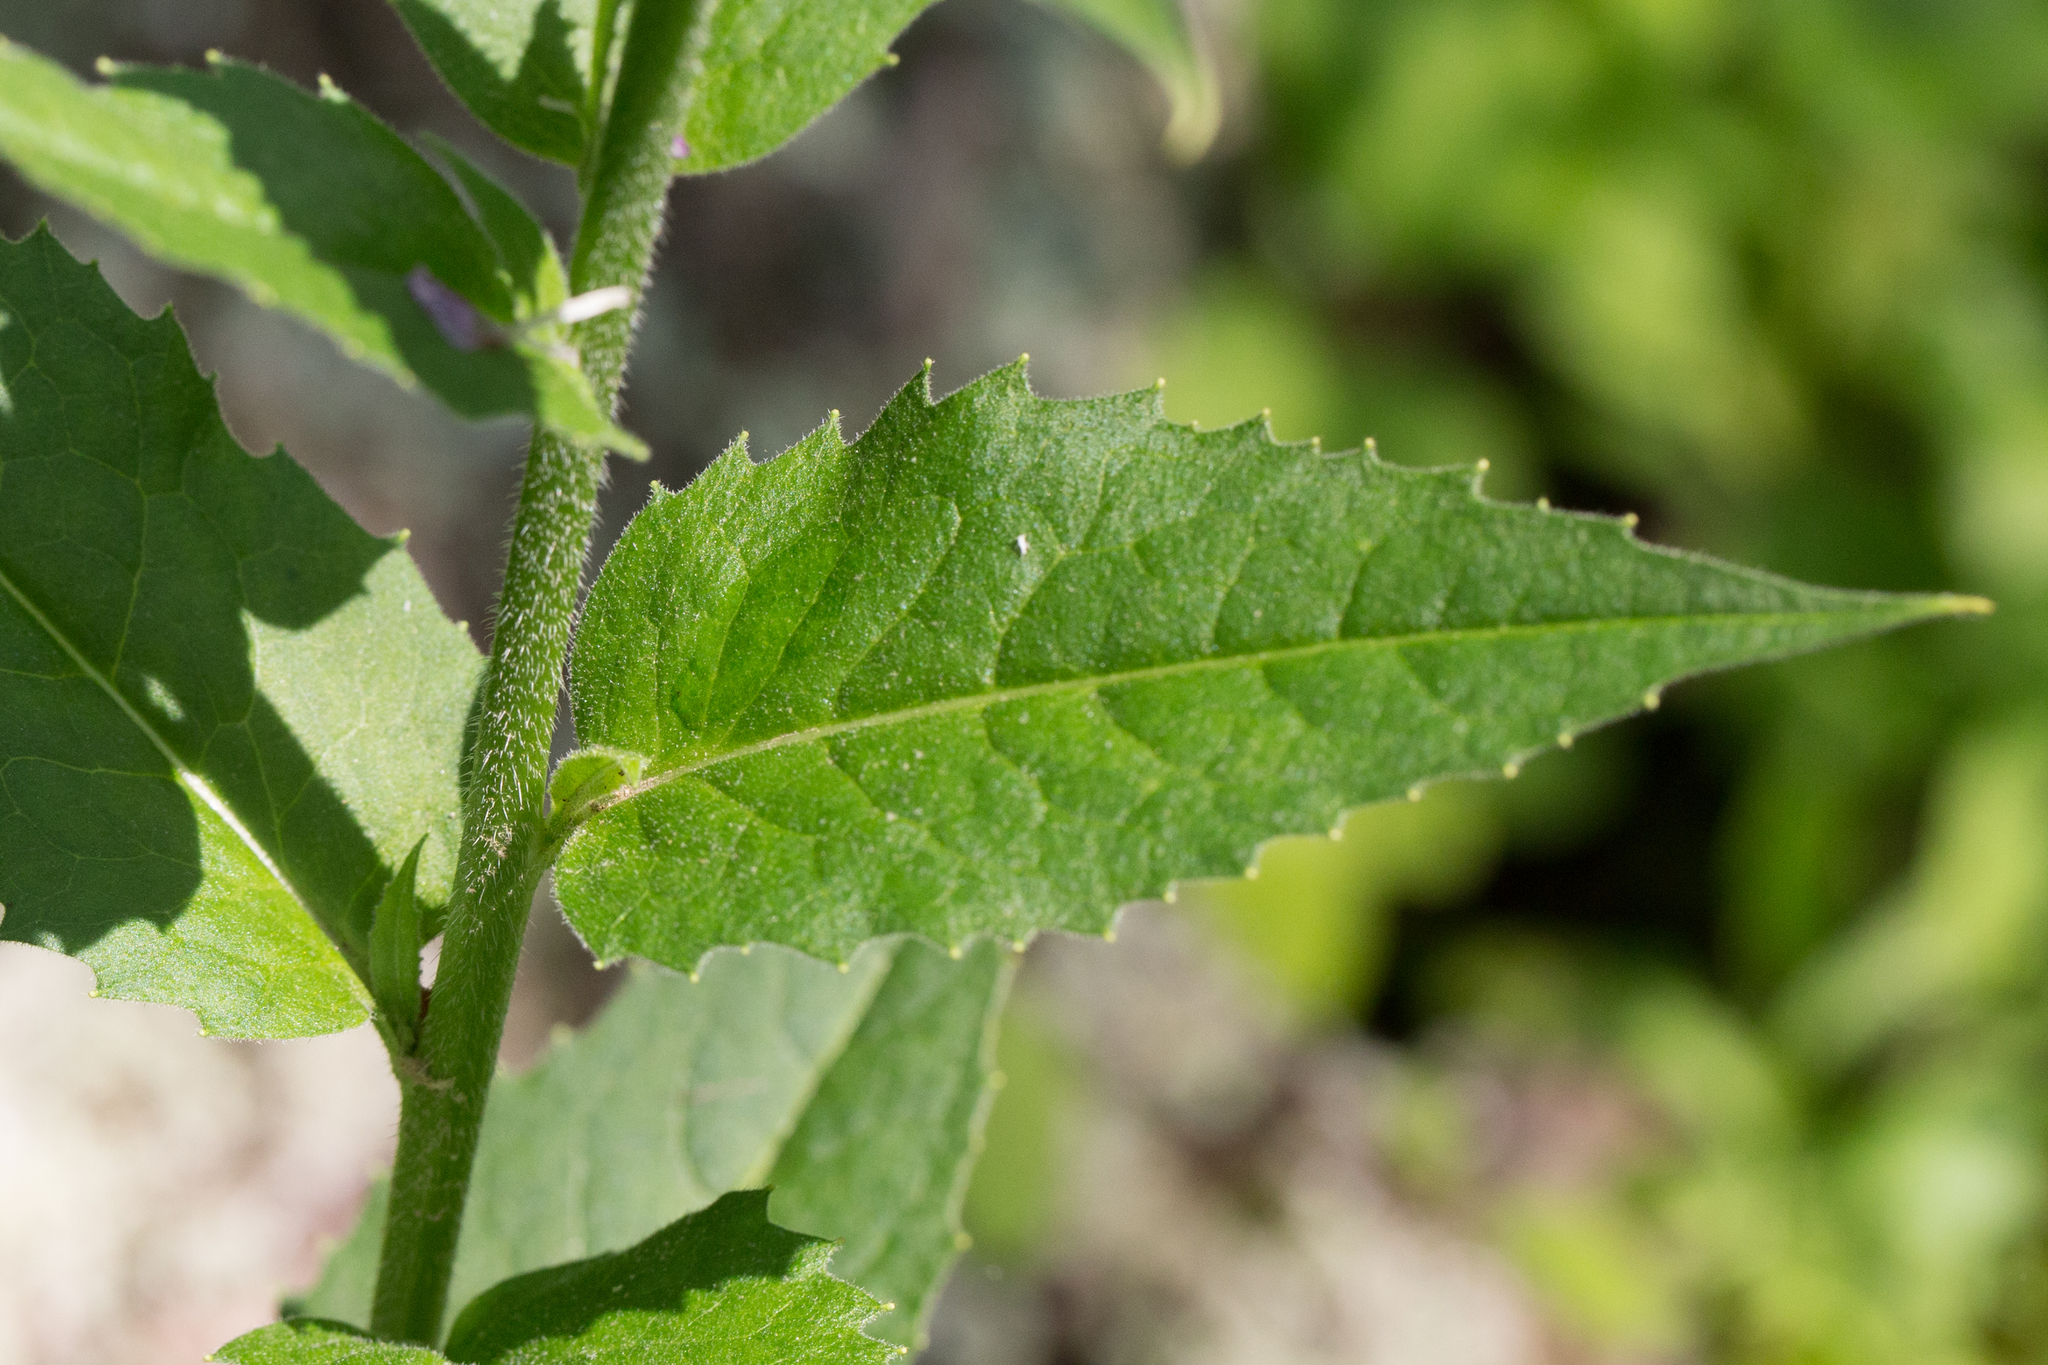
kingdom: Plantae
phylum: Tracheophyta
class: Magnoliopsida
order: Brassicales
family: Brassicaceae
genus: Hesperis
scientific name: Hesperis matronalis
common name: Dame's-violet
